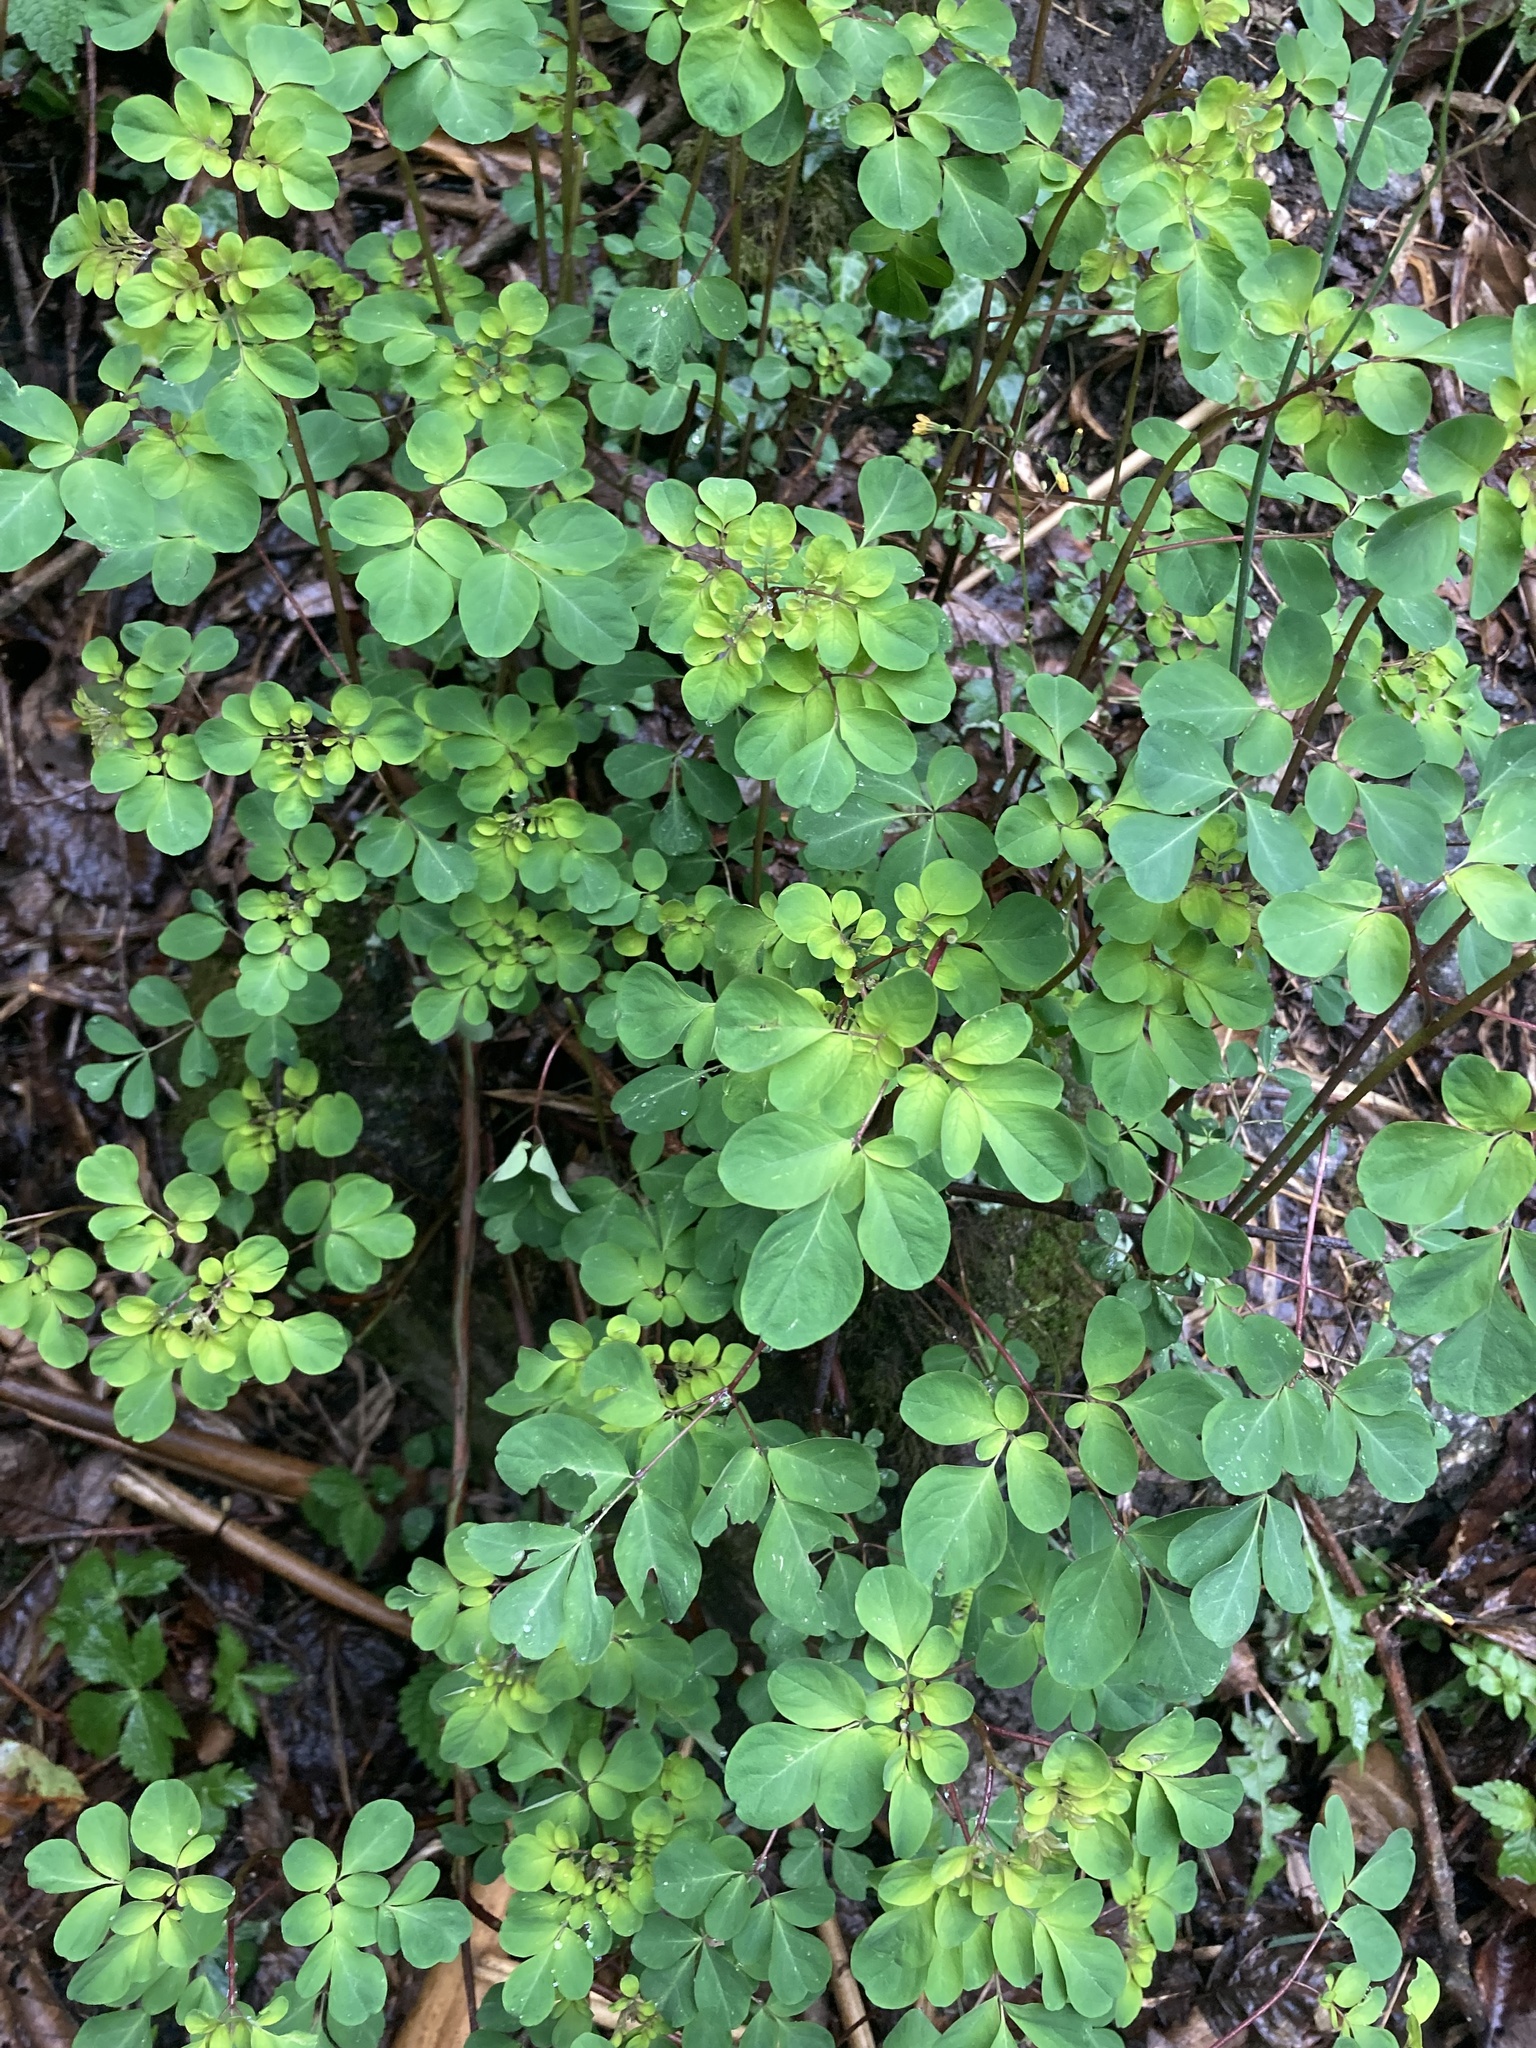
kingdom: Plantae
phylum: Tracheophyta
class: Magnoliopsida
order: Sapindales
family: Rutaceae
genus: Boenninghausenia
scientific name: Boenninghausenia albiflora
